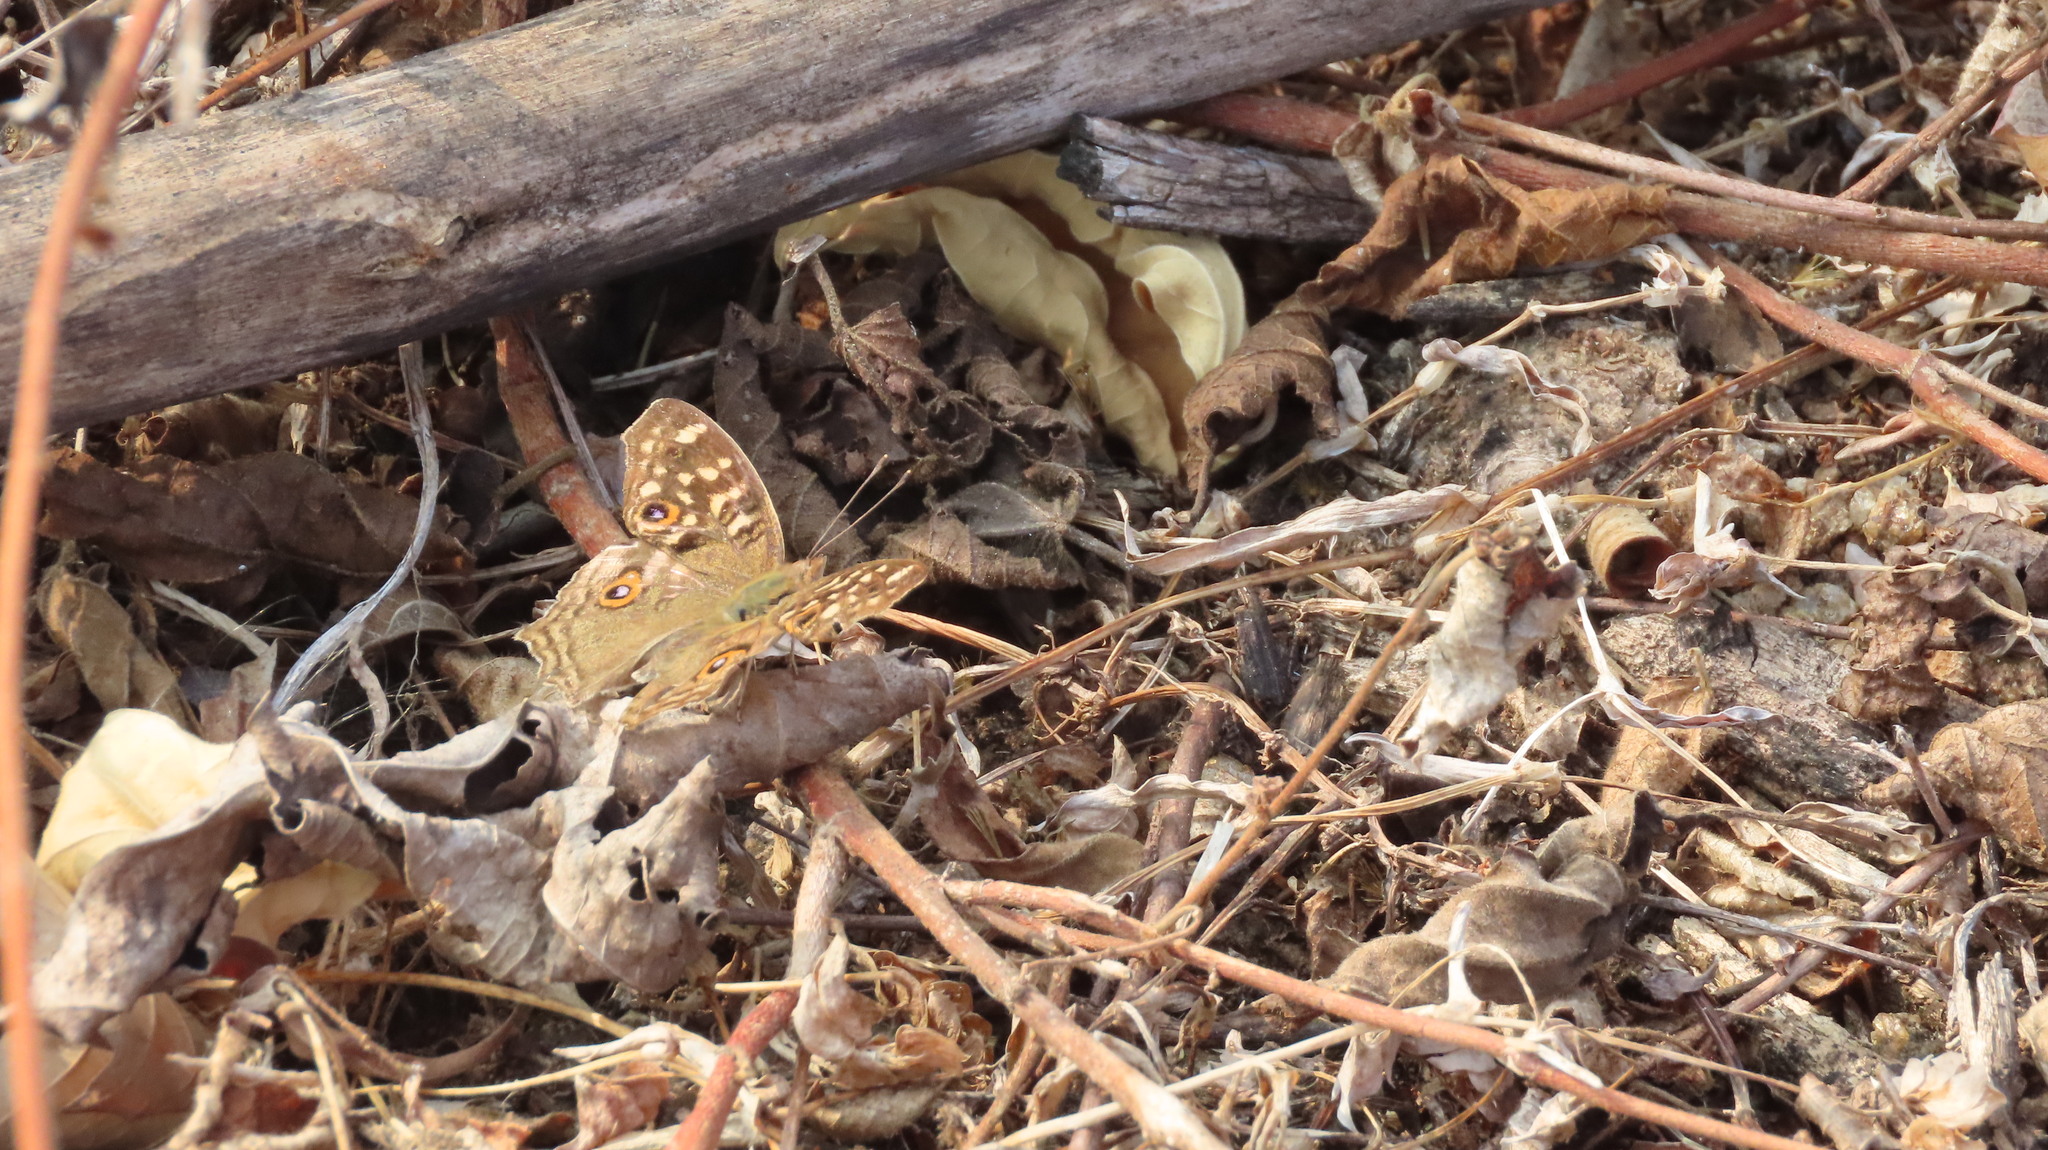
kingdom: Animalia
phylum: Arthropoda
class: Insecta
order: Lepidoptera
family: Nymphalidae
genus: Junonia
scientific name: Junonia lemonias
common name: Lemon pansy
